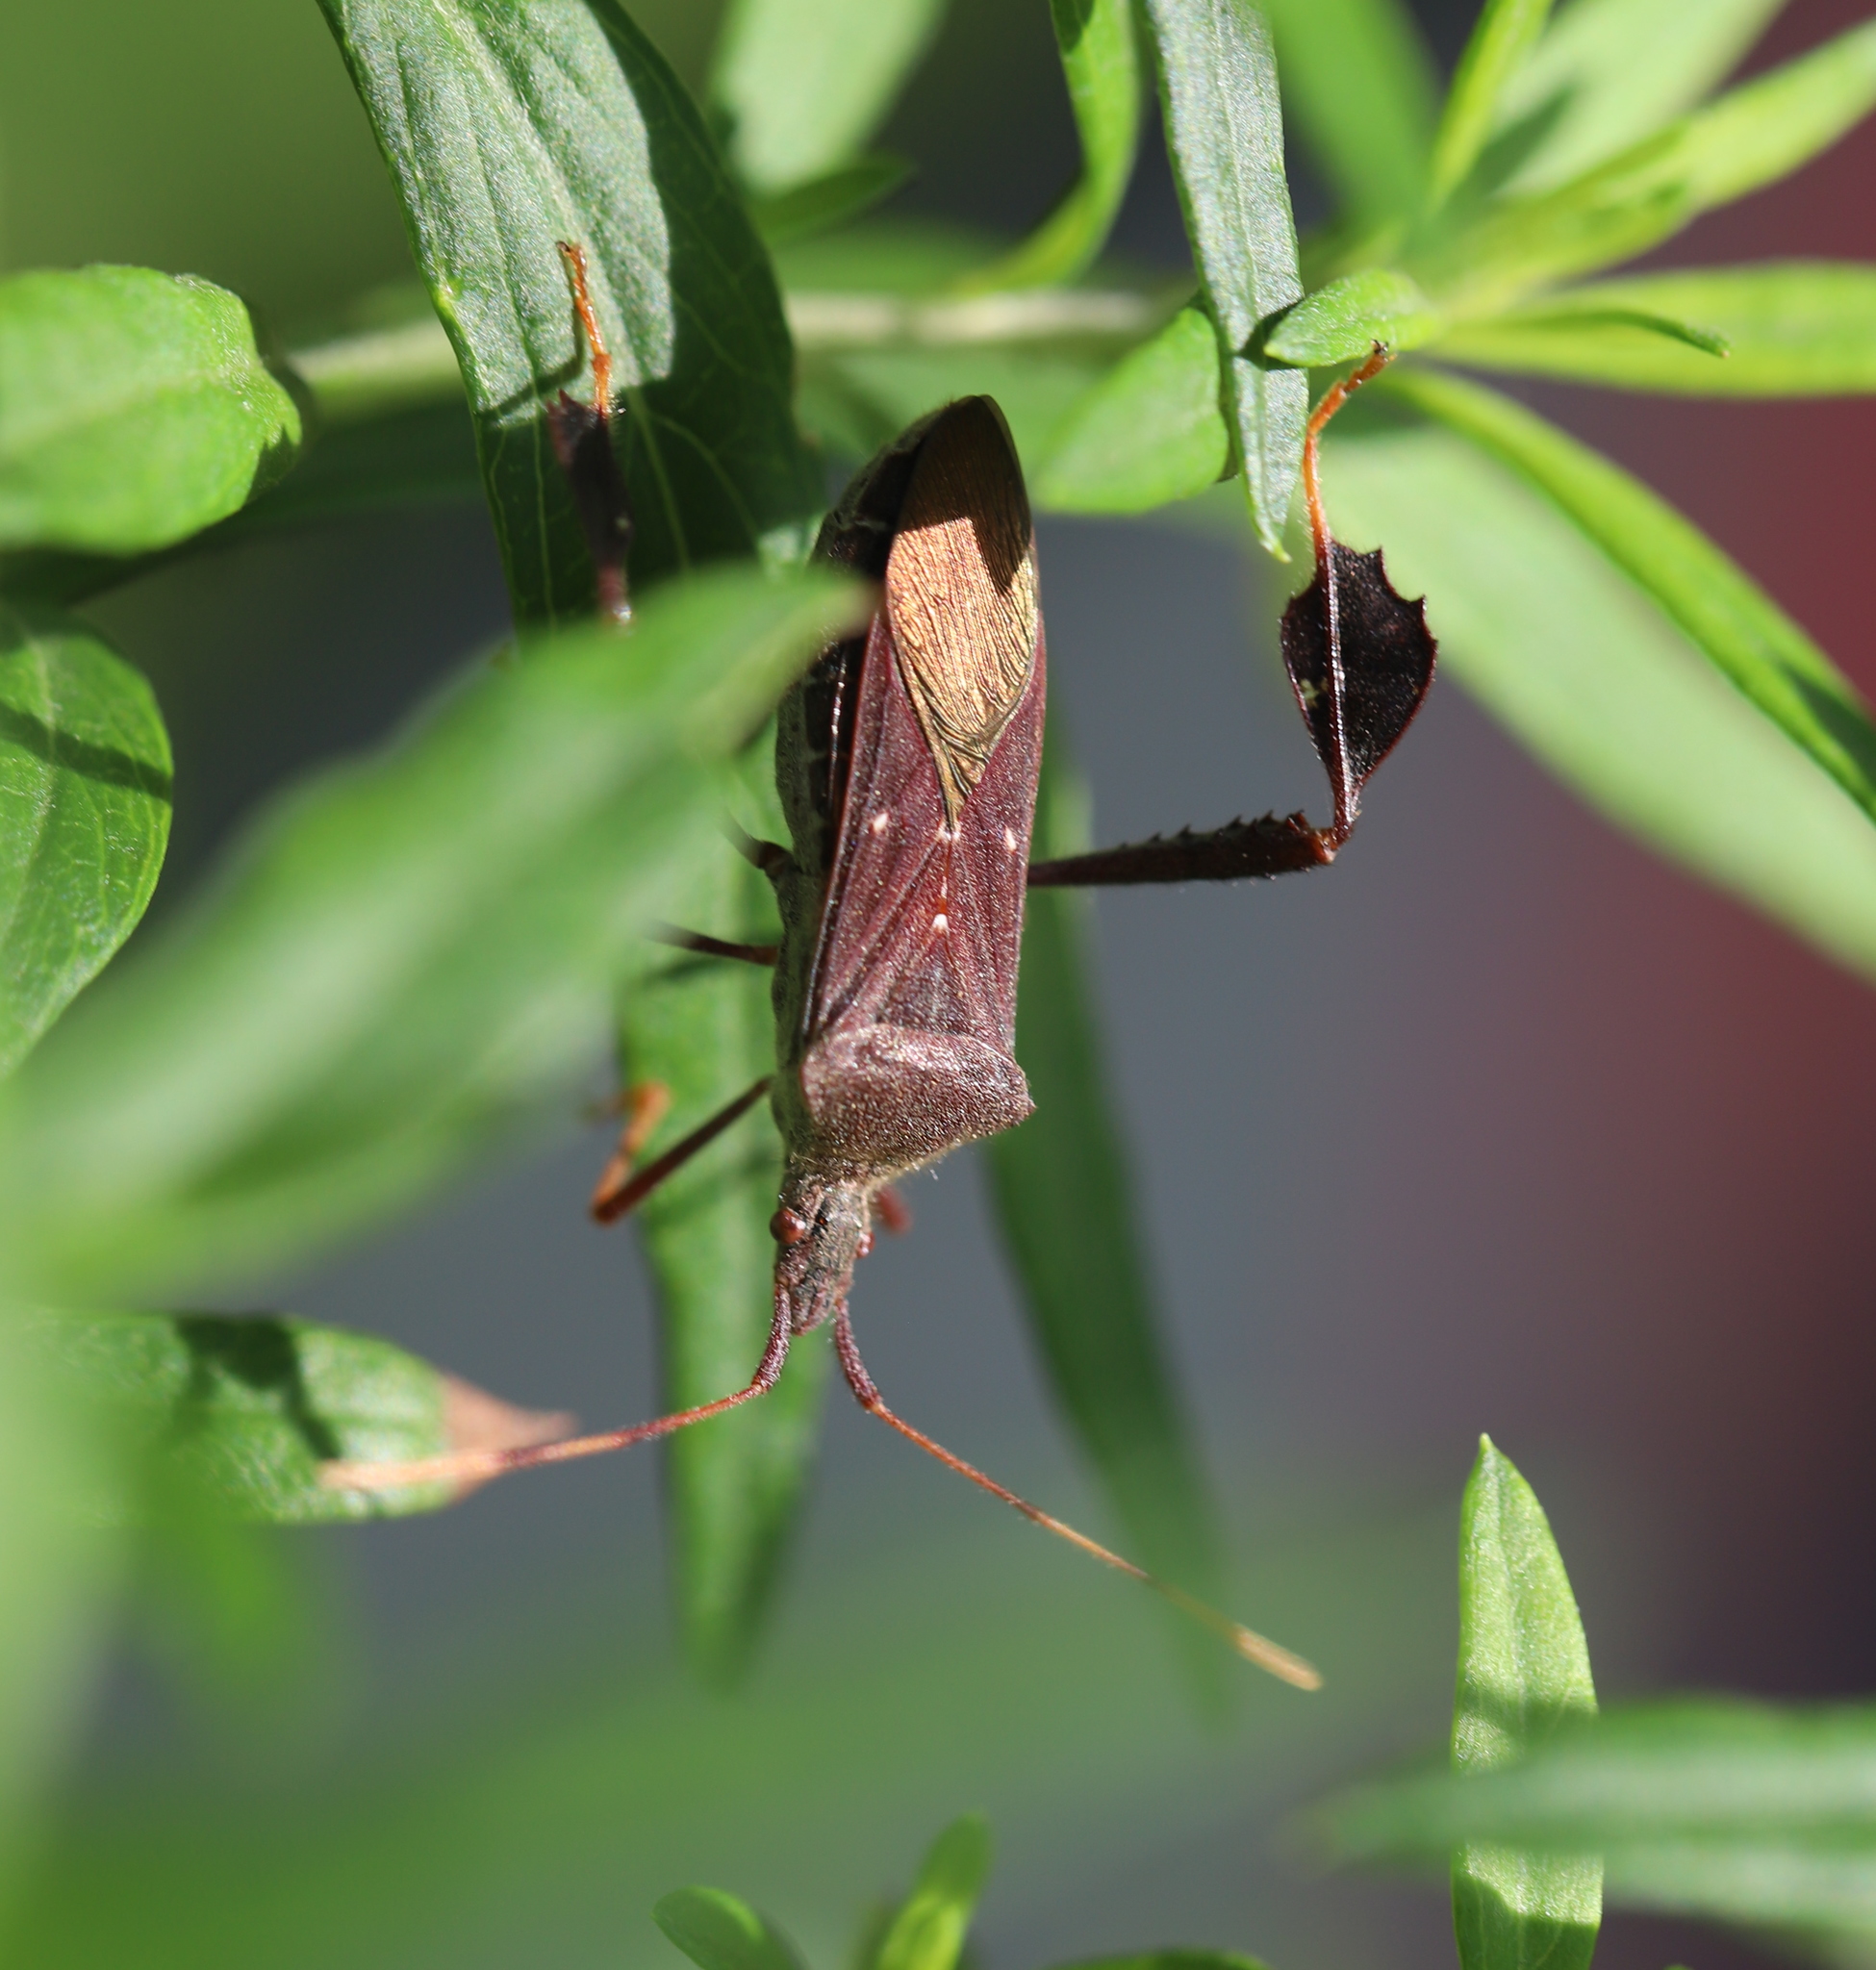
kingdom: Animalia
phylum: Arthropoda
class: Insecta
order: Hemiptera
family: Coreidae
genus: Leptoglossus
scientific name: Leptoglossus oppositus
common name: Northern leaf-footed bug
